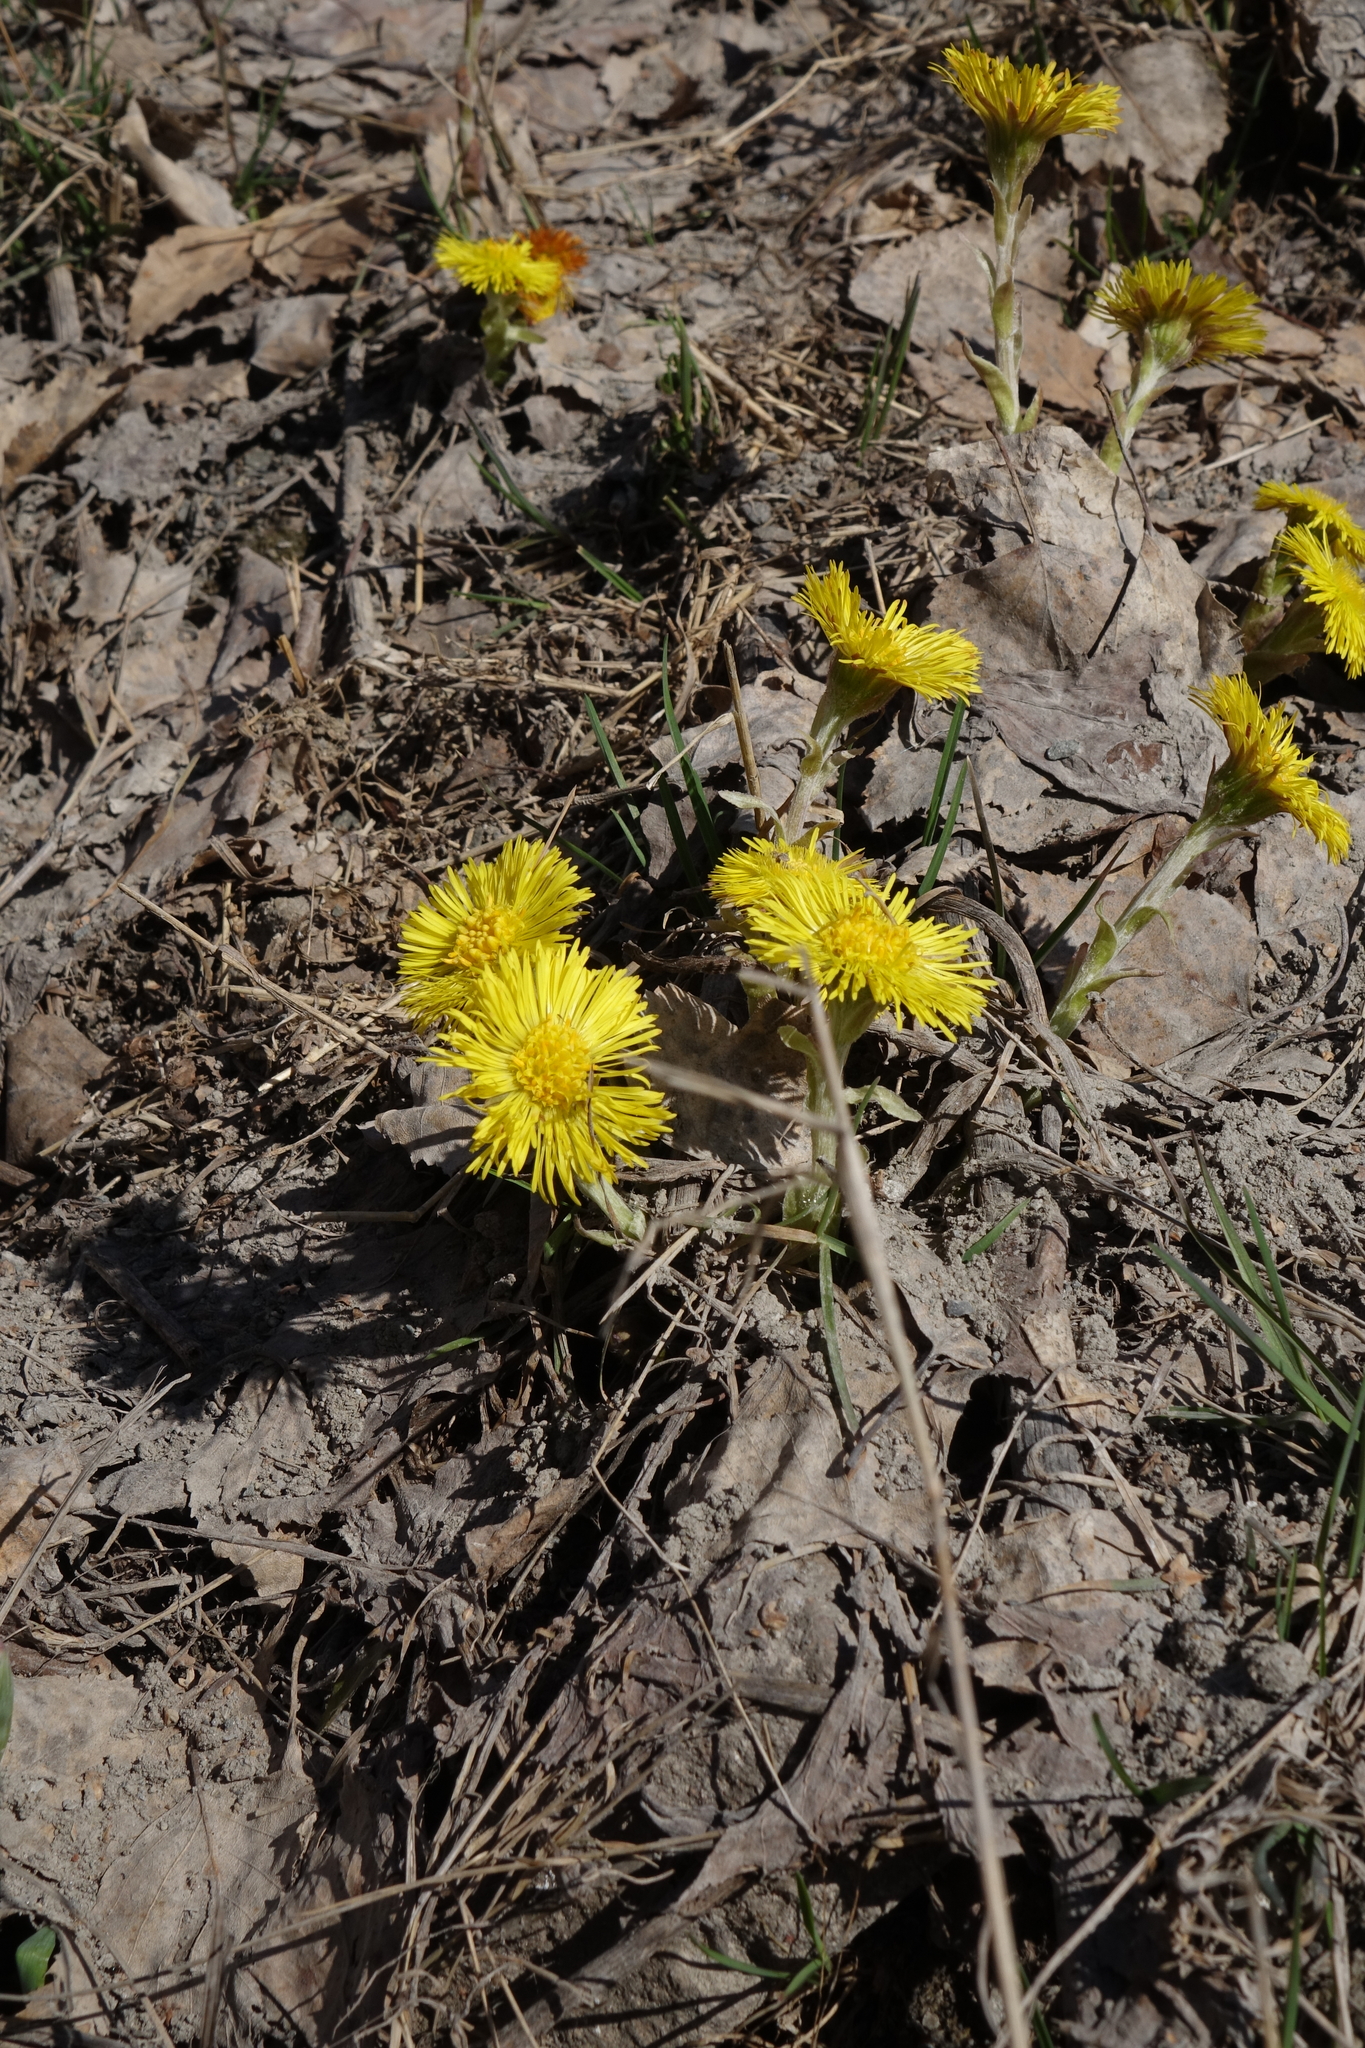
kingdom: Plantae
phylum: Tracheophyta
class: Magnoliopsida
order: Asterales
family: Asteraceae
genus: Tussilago
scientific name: Tussilago farfara
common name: Coltsfoot
